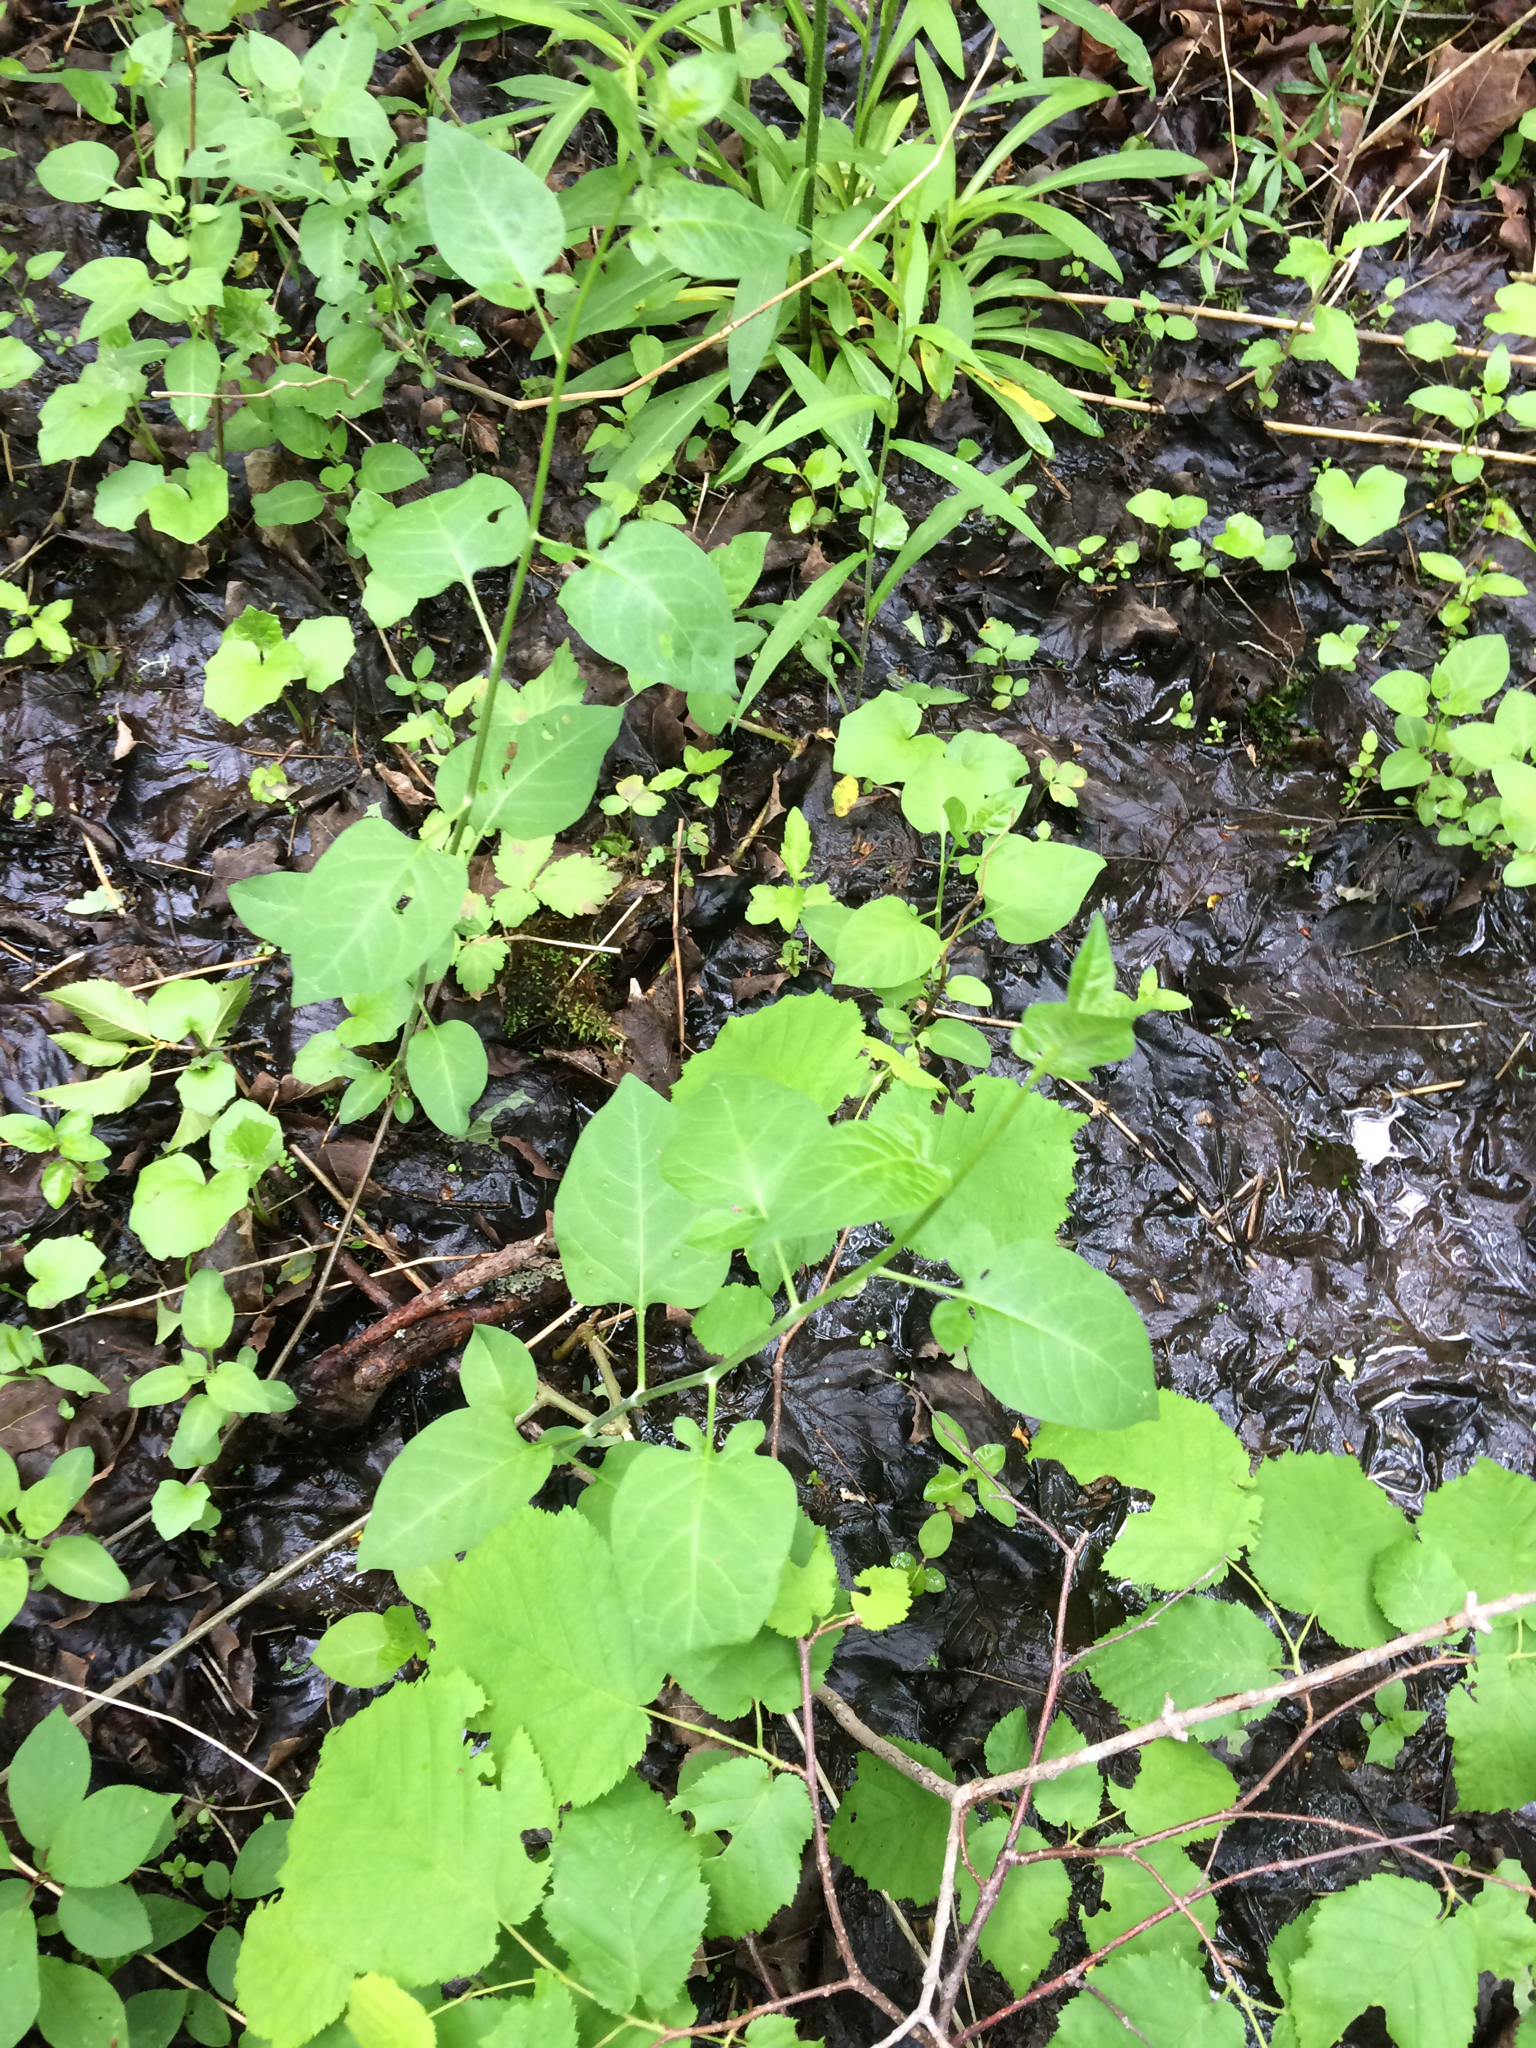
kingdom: Plantae
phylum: Tracheophyta
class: Magnoliopsida
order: Solanales
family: Solanaceae
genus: Solanum
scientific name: Solanum dulcamara
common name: Climbing nightshade
